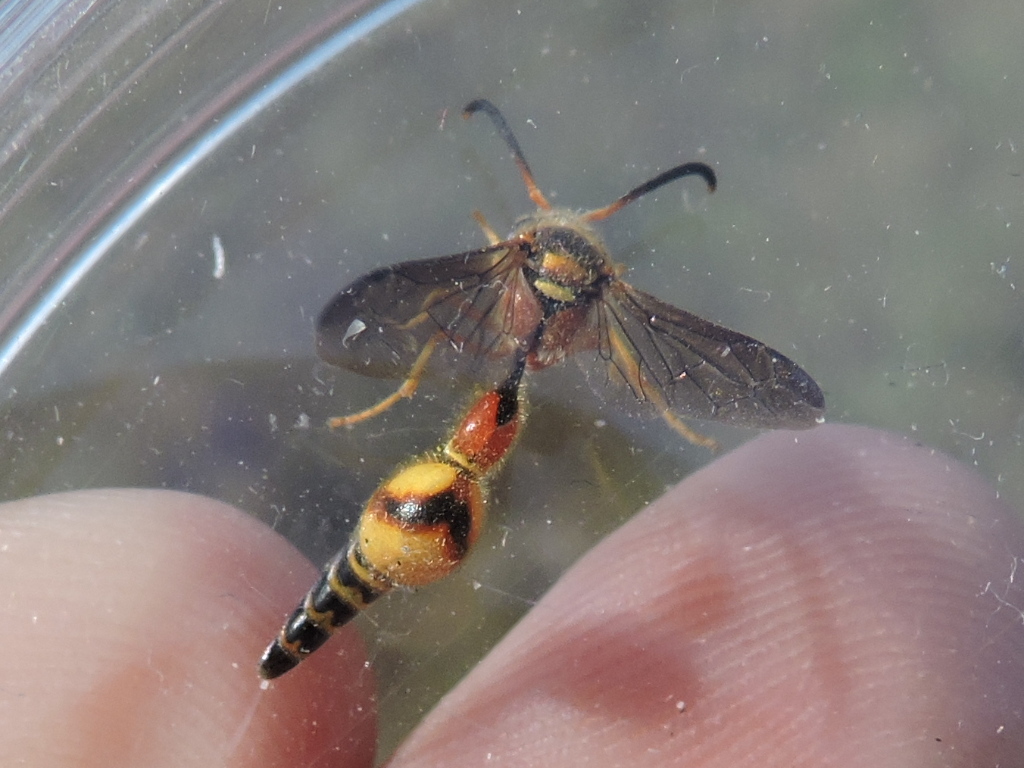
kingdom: Animalia
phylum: Arthropoda
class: Insecta
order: Hymenoptera
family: Vespidae
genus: Eumenes
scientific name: Eumenes bollii
